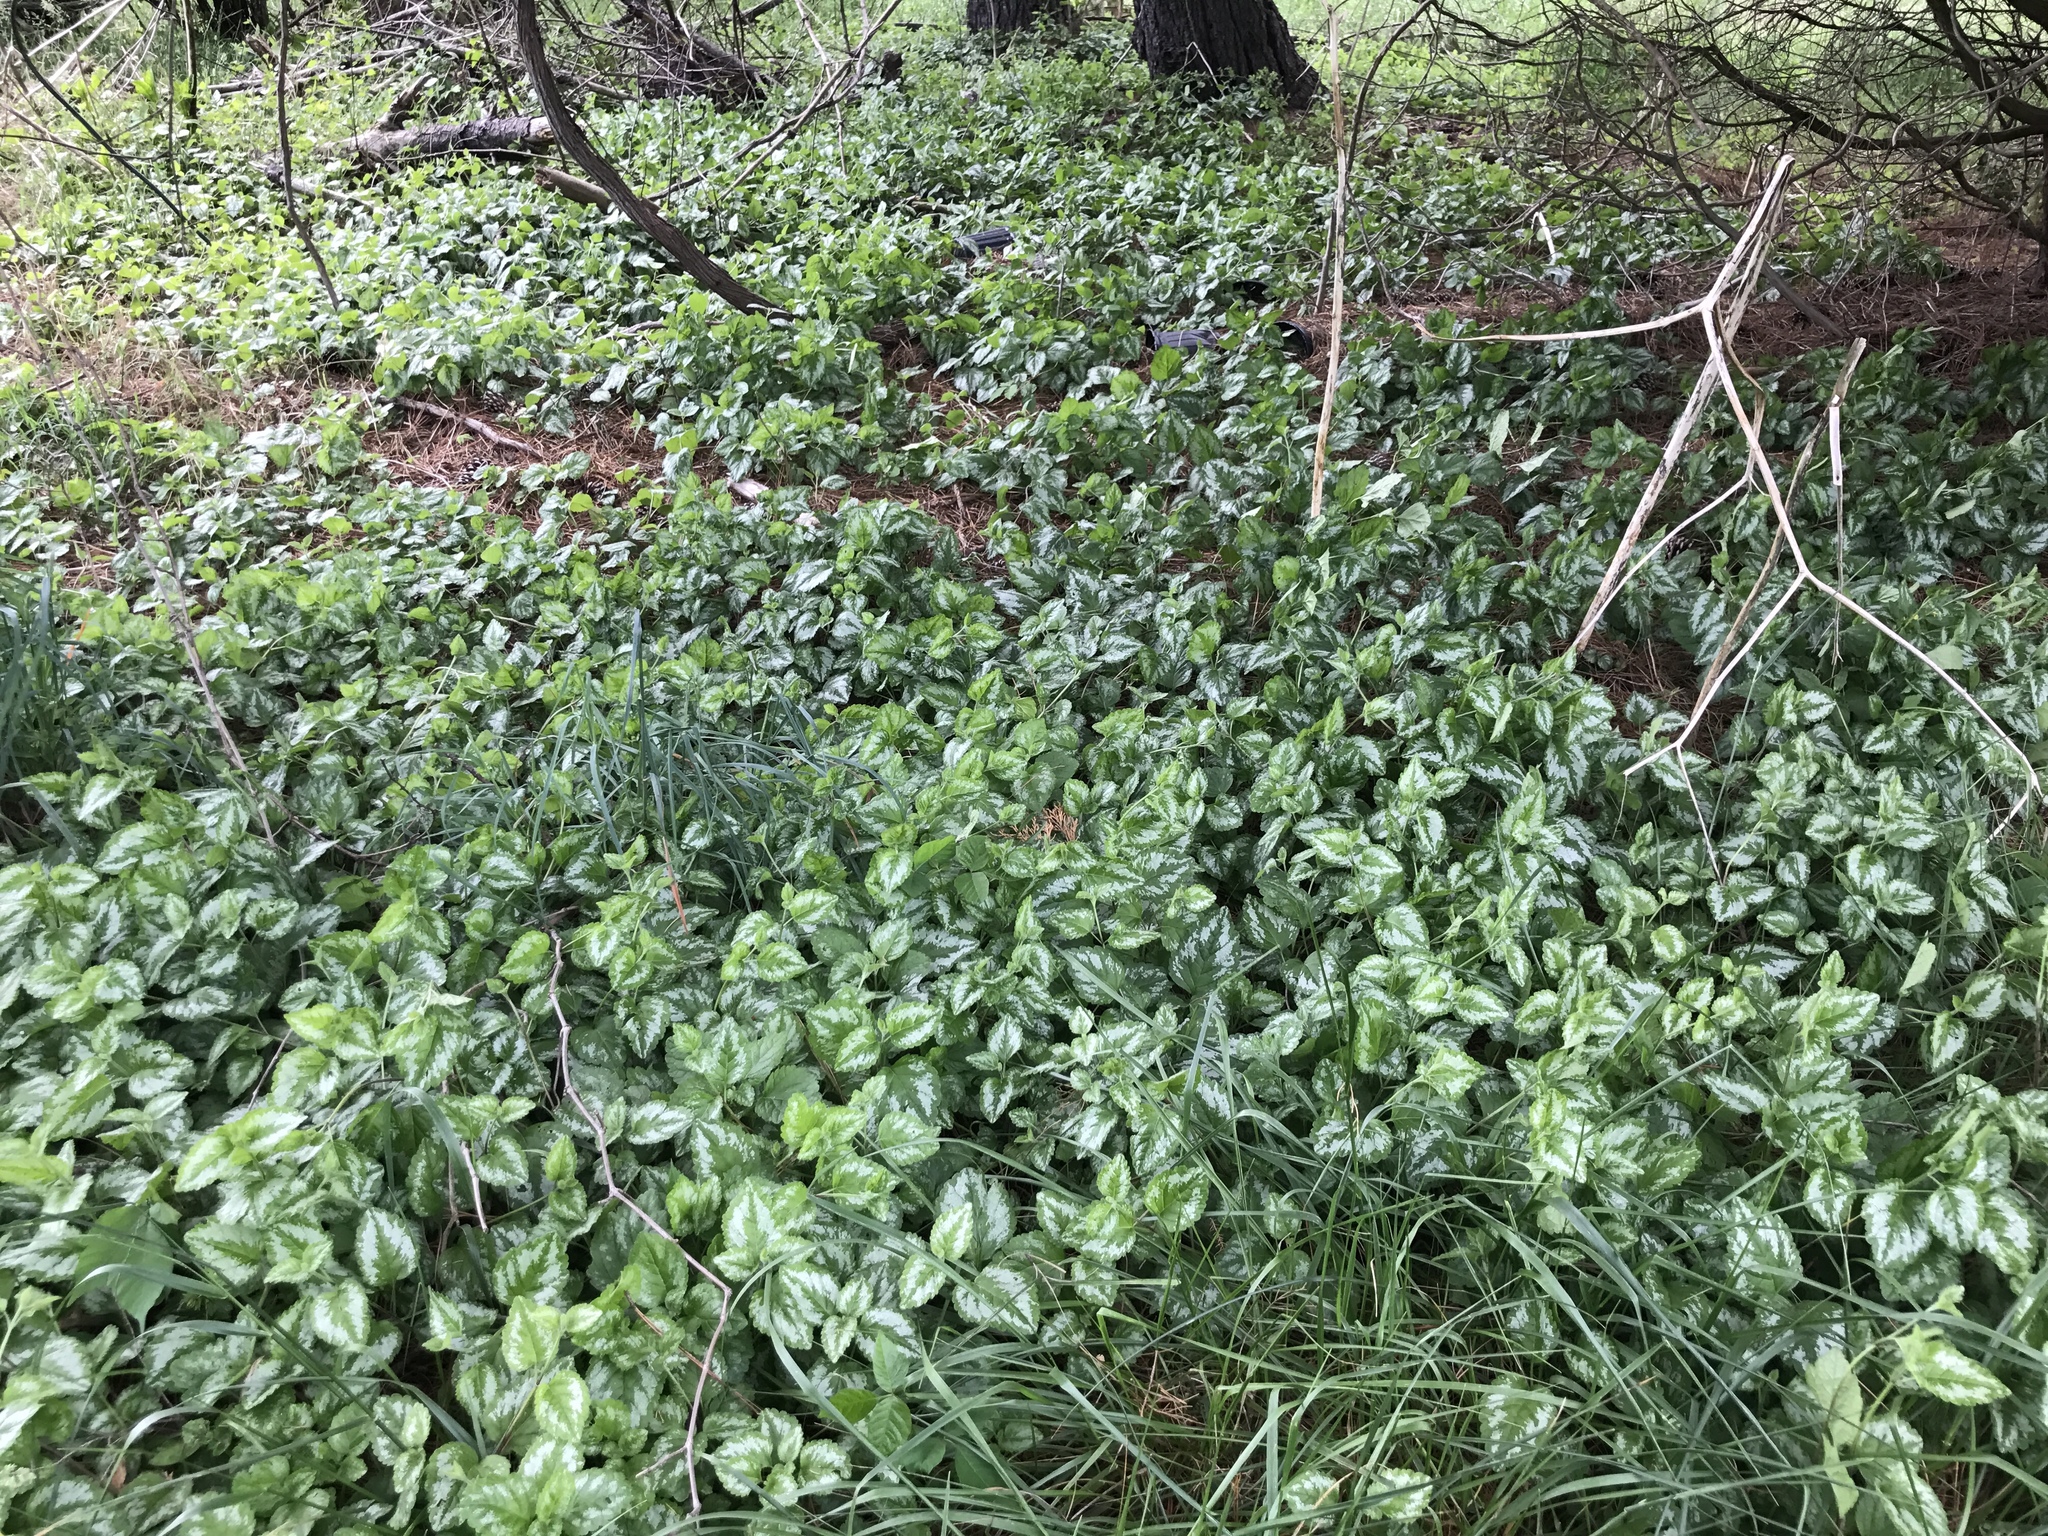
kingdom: Plantae
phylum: Tracheophyta
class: Magnoliopsida
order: Lamiales
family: Lamiaceae
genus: Lamium
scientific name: Lamium galeobdolon
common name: Yellow archangel
